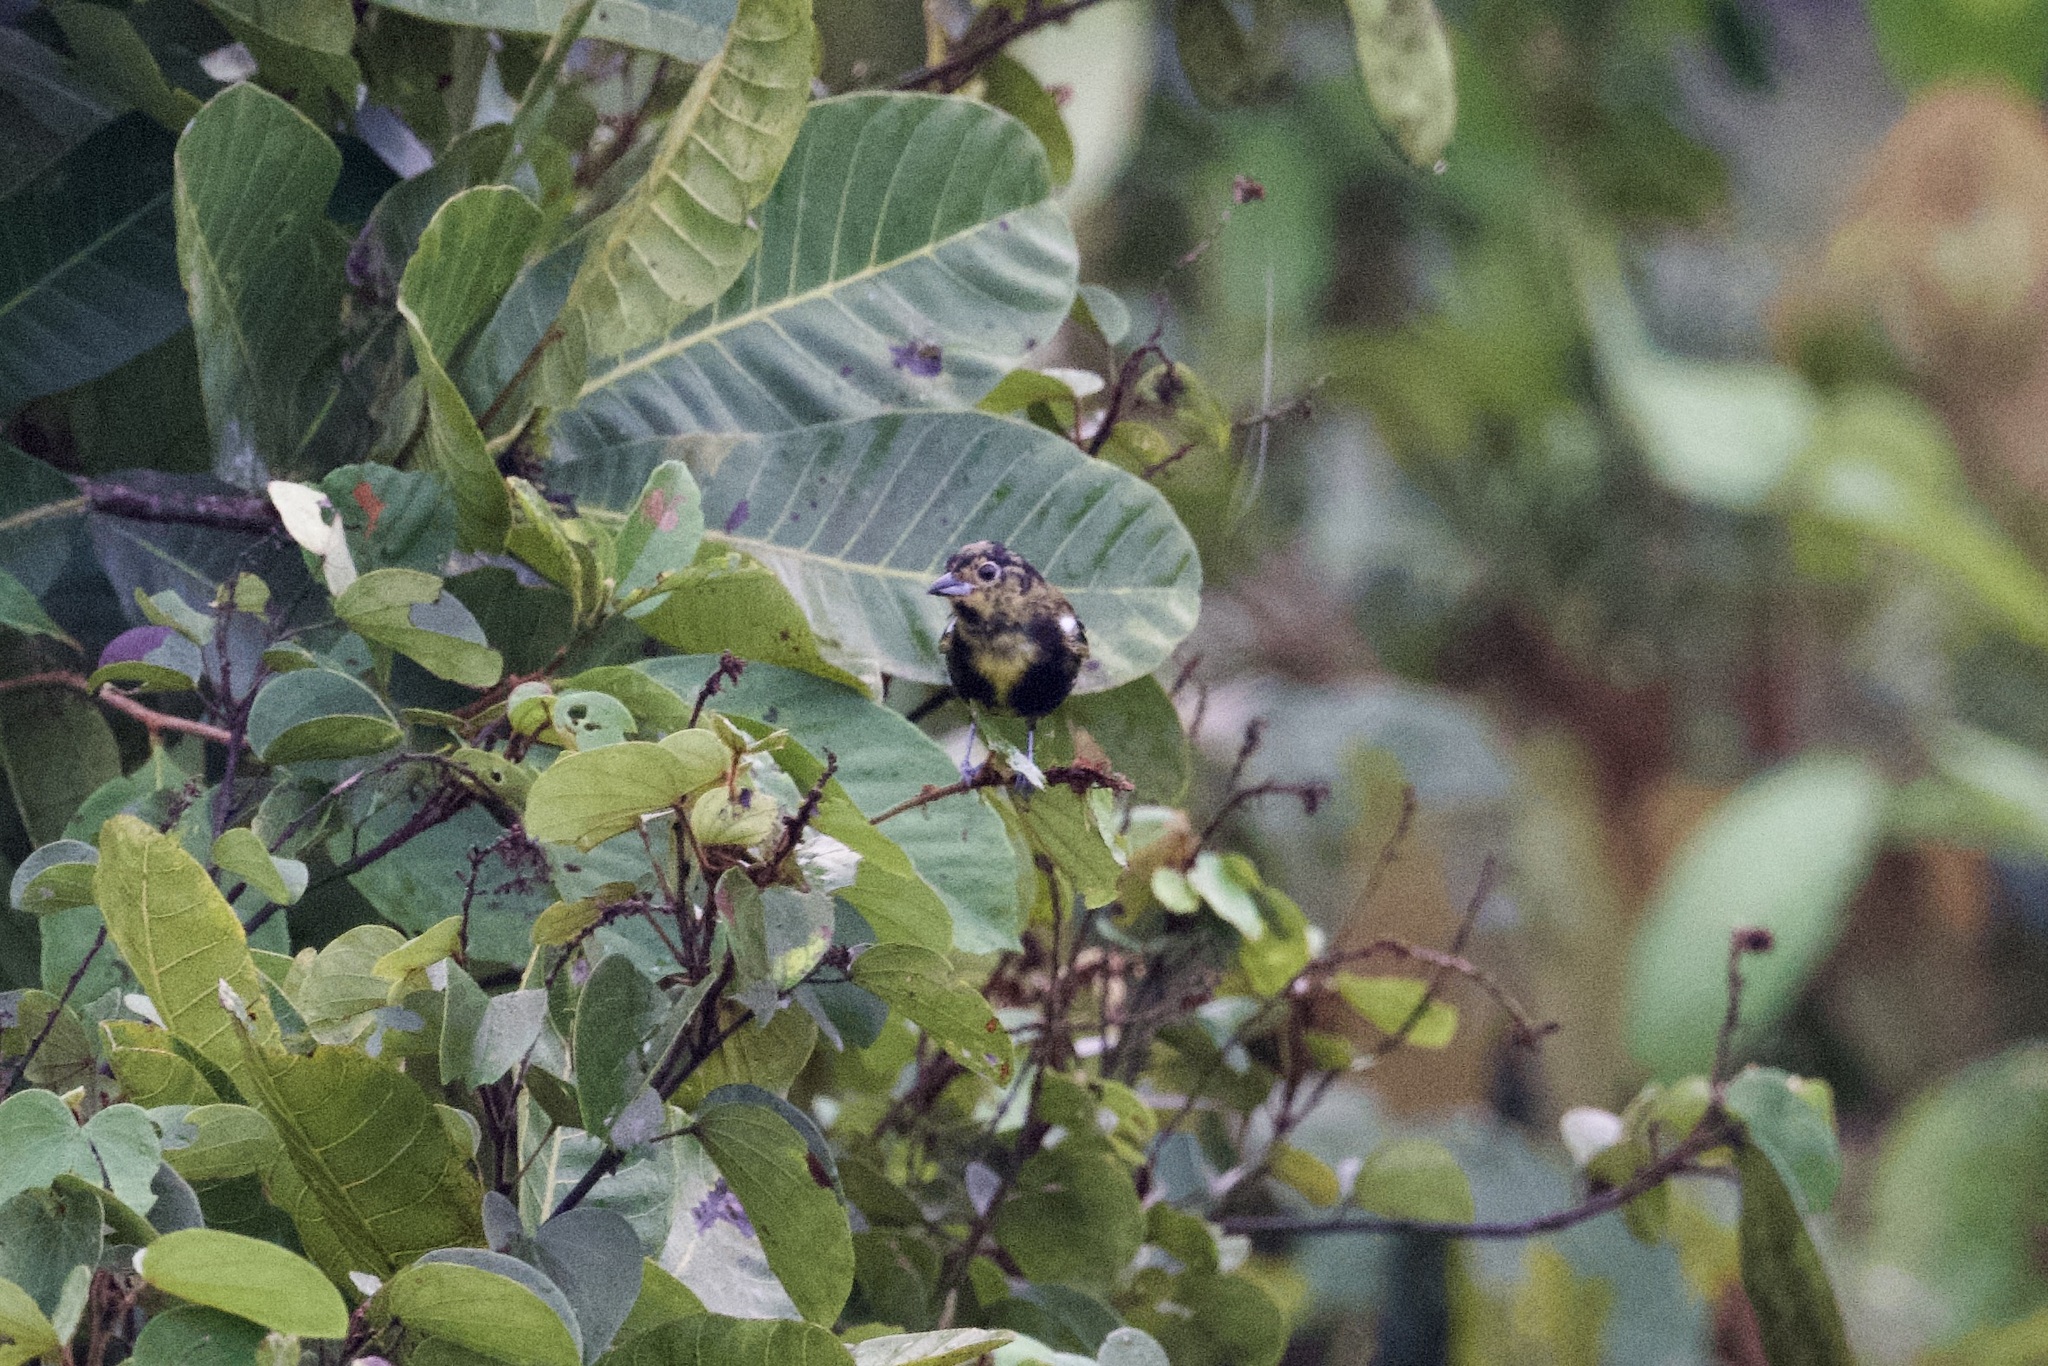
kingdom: Animalia
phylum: Chordata
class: Aves
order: Passeriformes
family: Thraupidae
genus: Loriotus
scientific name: Loriotus luctuosus
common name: White-shouldered tanager
